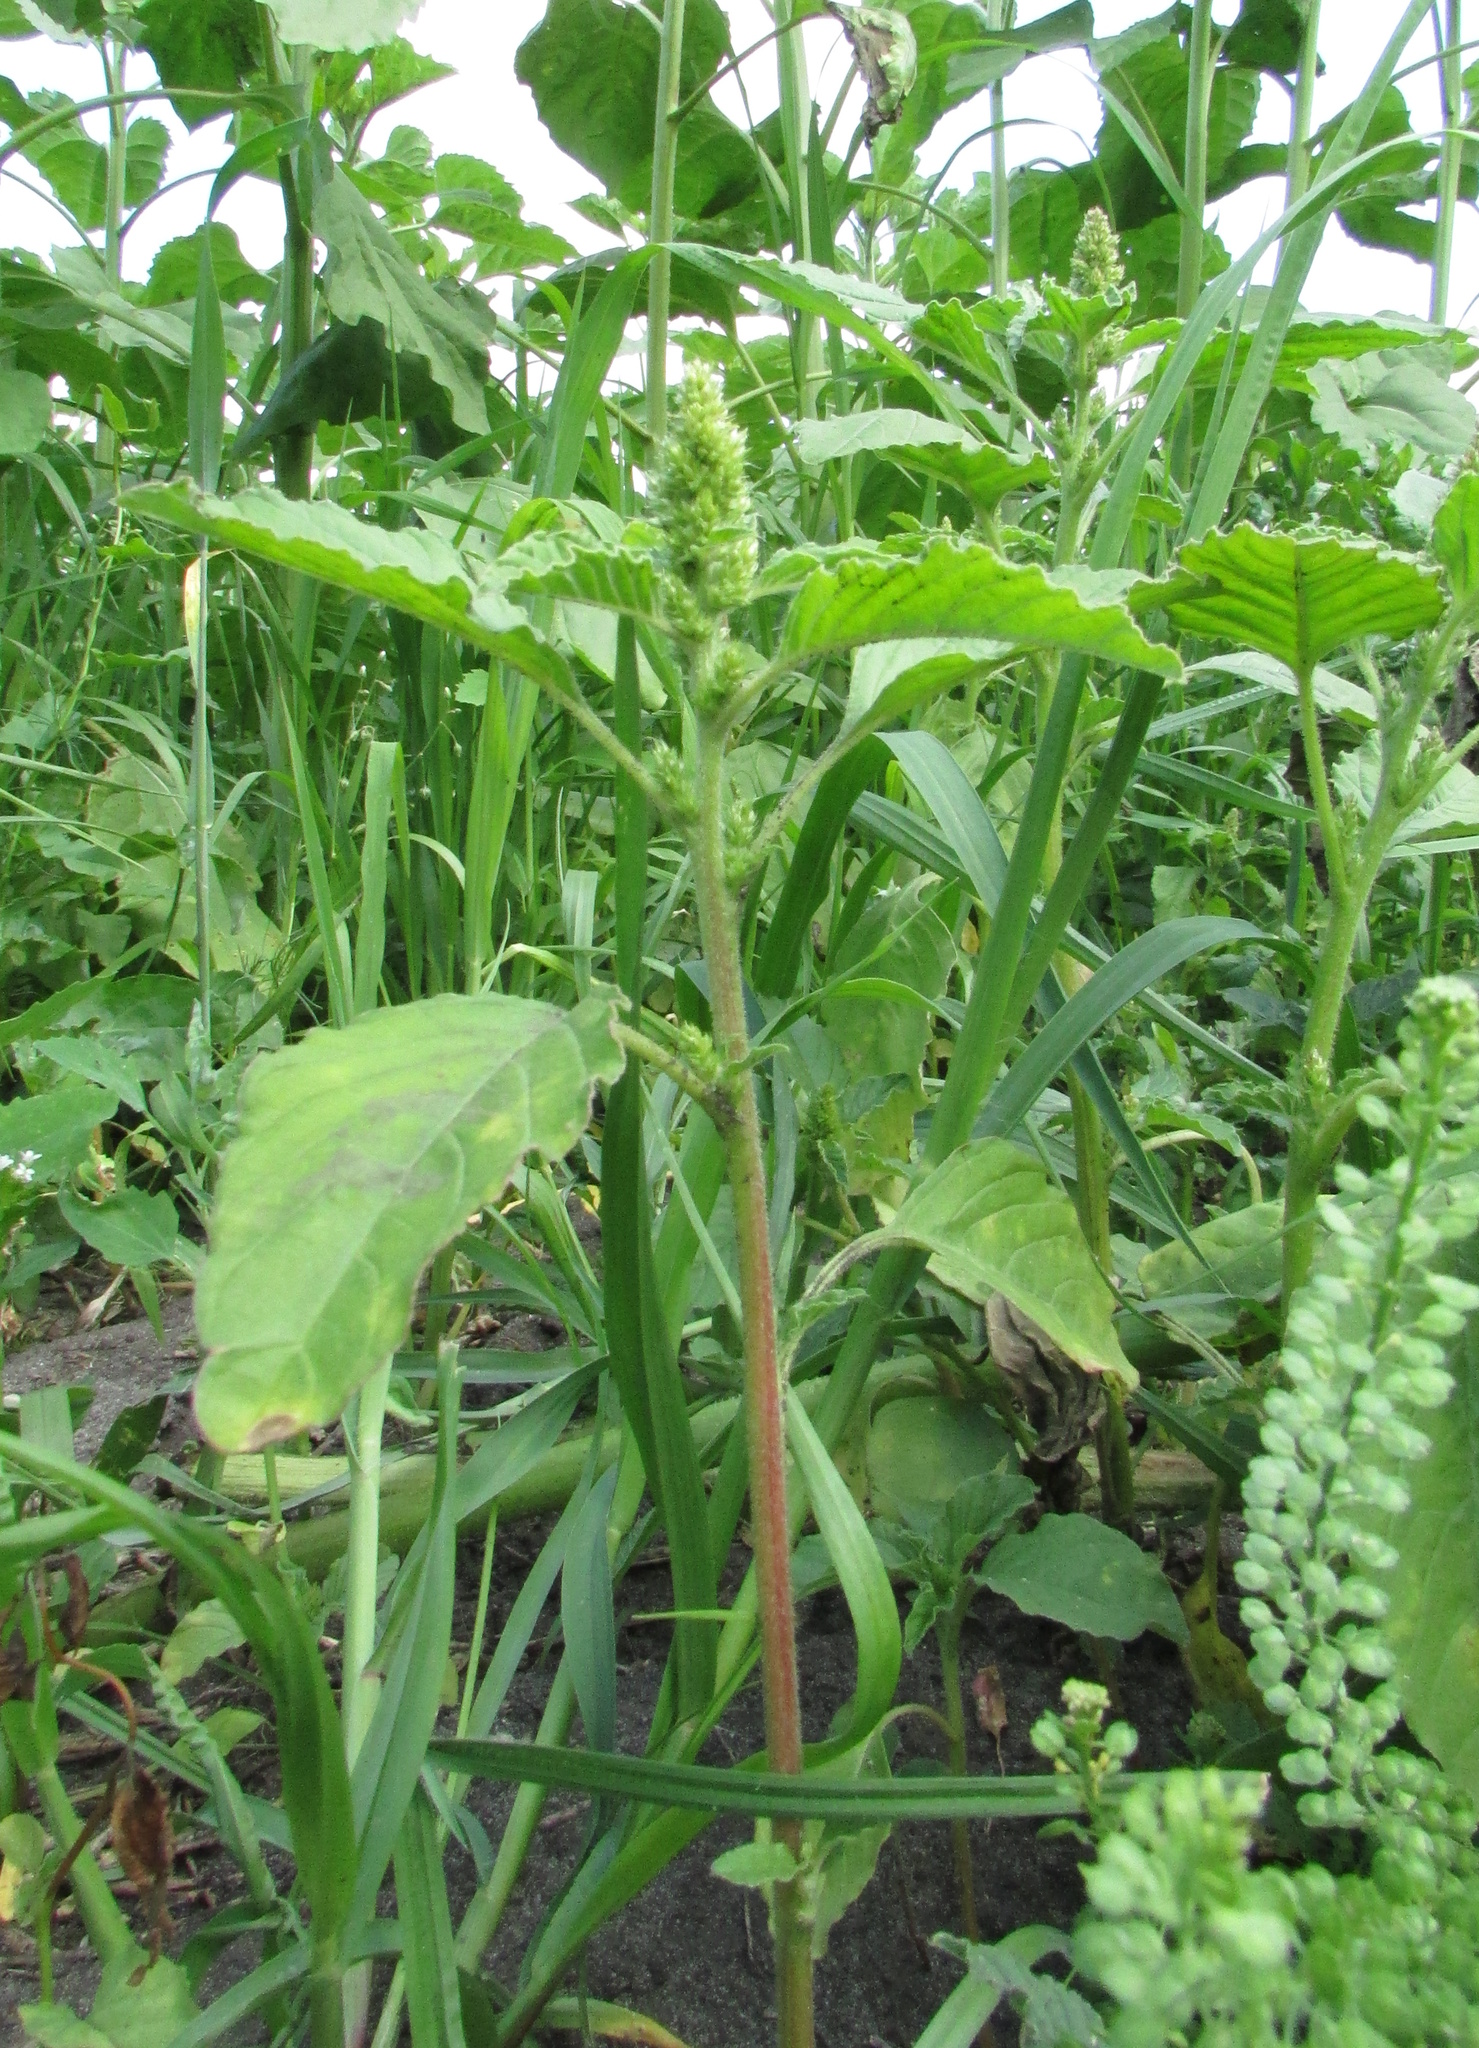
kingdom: Plantae
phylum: Tracheophyta
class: Magnoliopsida
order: Caryophyllales
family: Amaranthaceae
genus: Amaranthus
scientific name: Amaranthus retroflexus
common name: Redroot amaranth
